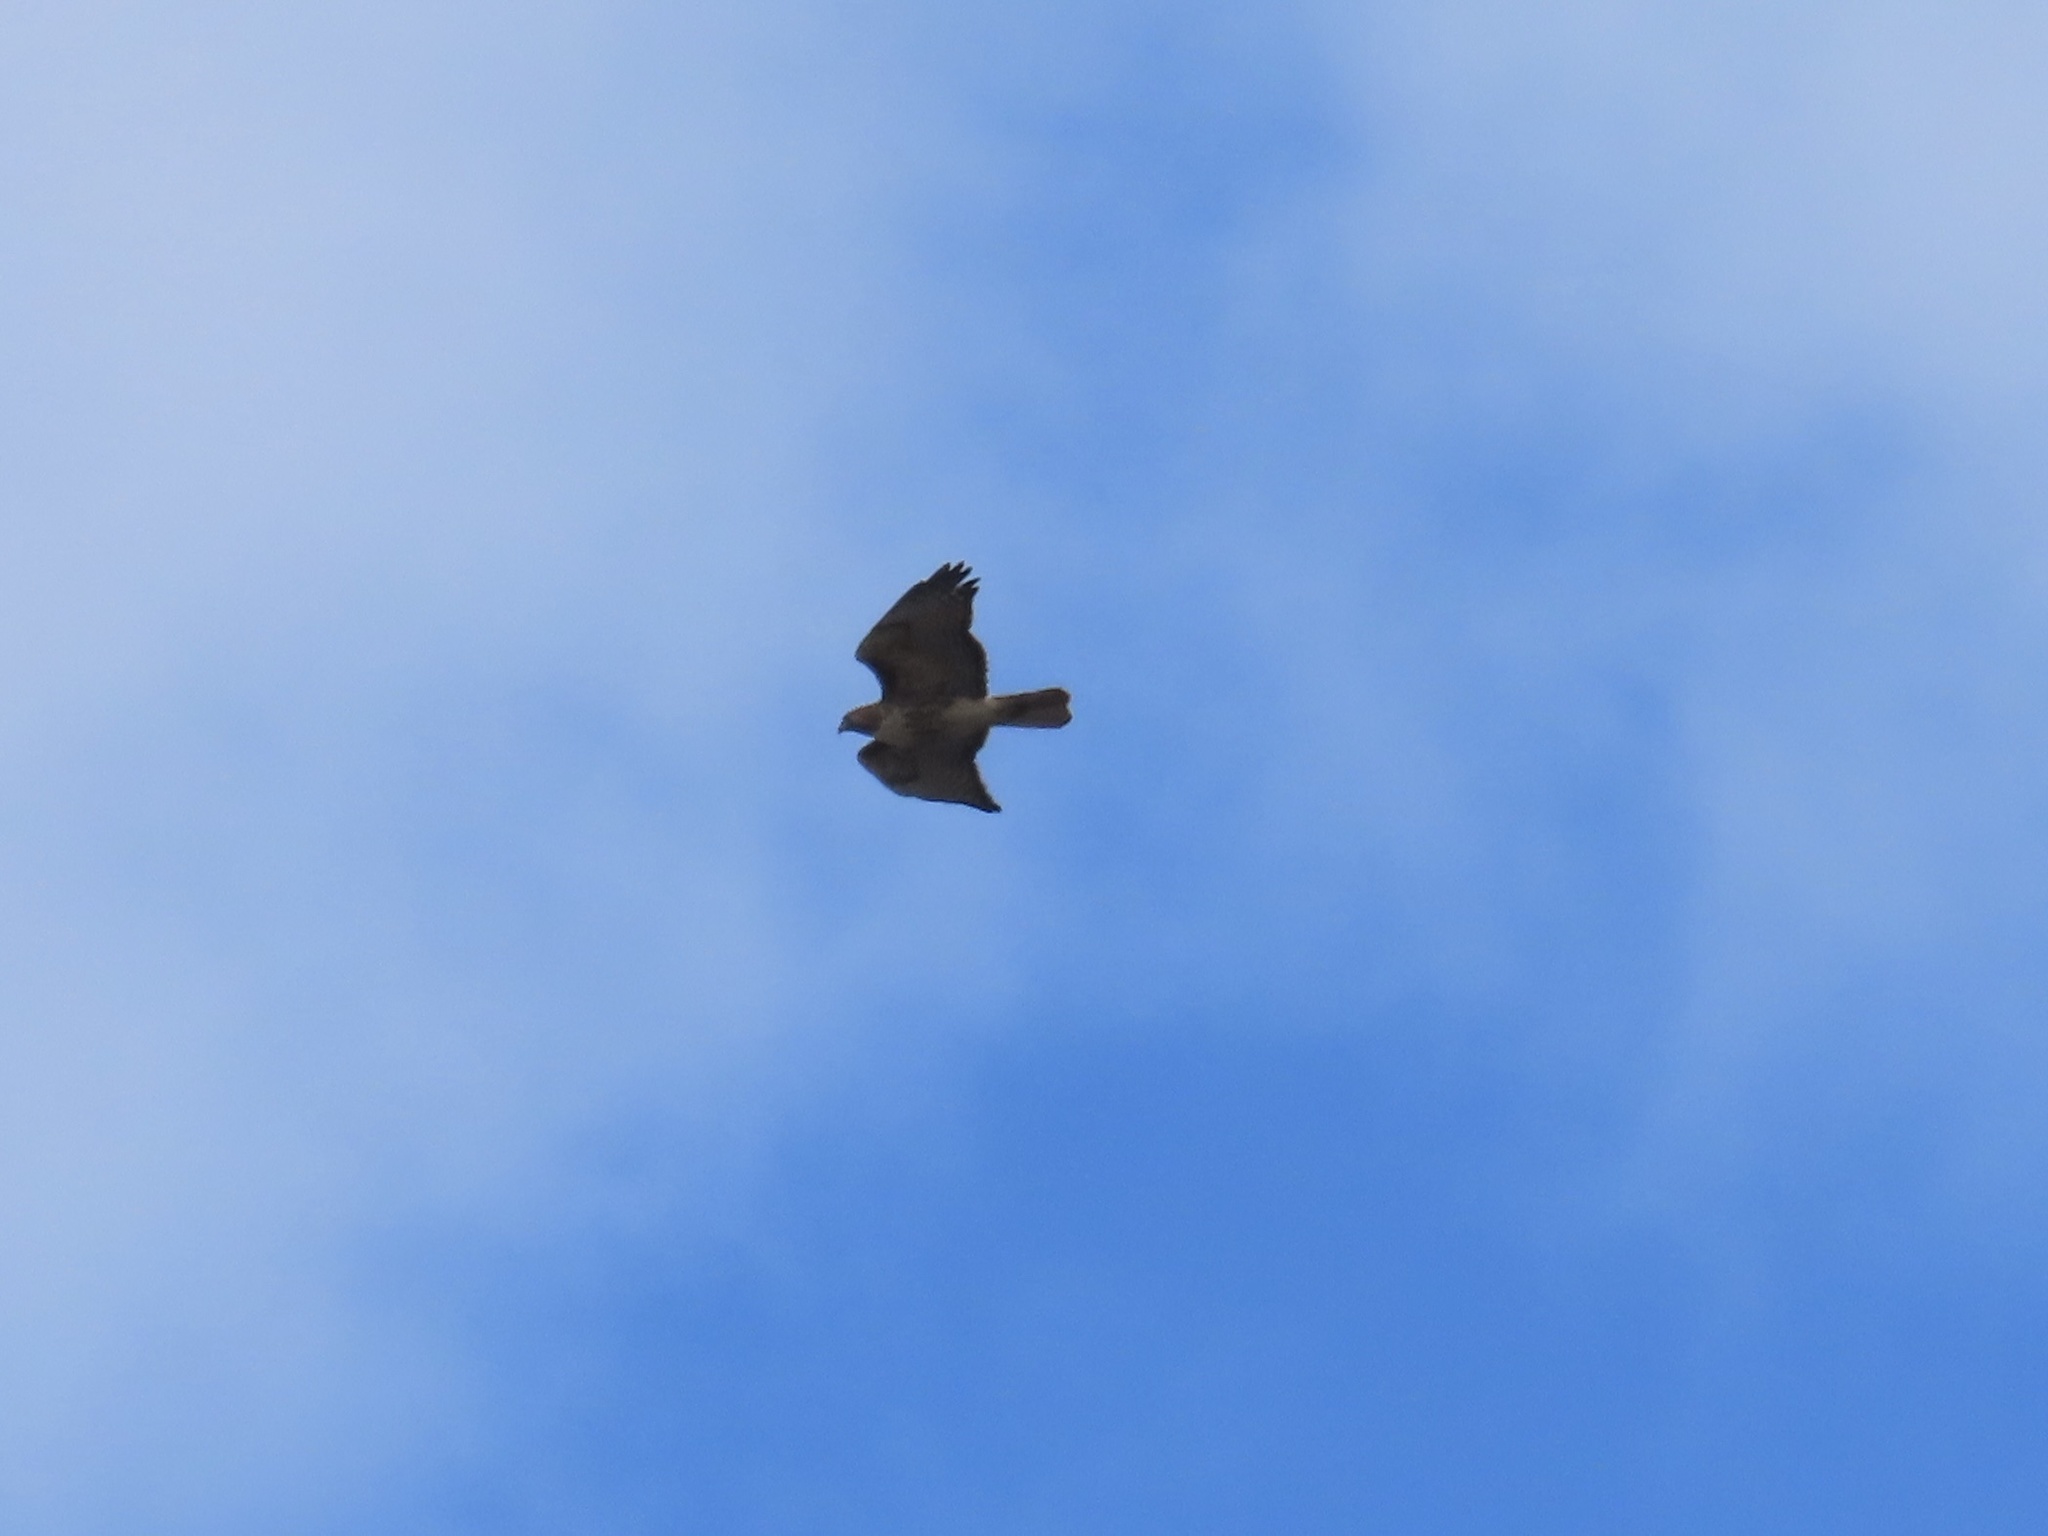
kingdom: Animalia
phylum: Chordata
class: Aves
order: Accipitriformes
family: Accipitridae
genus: Buteo
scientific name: Buteo jamaicensis
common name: Red-tailed hawk
